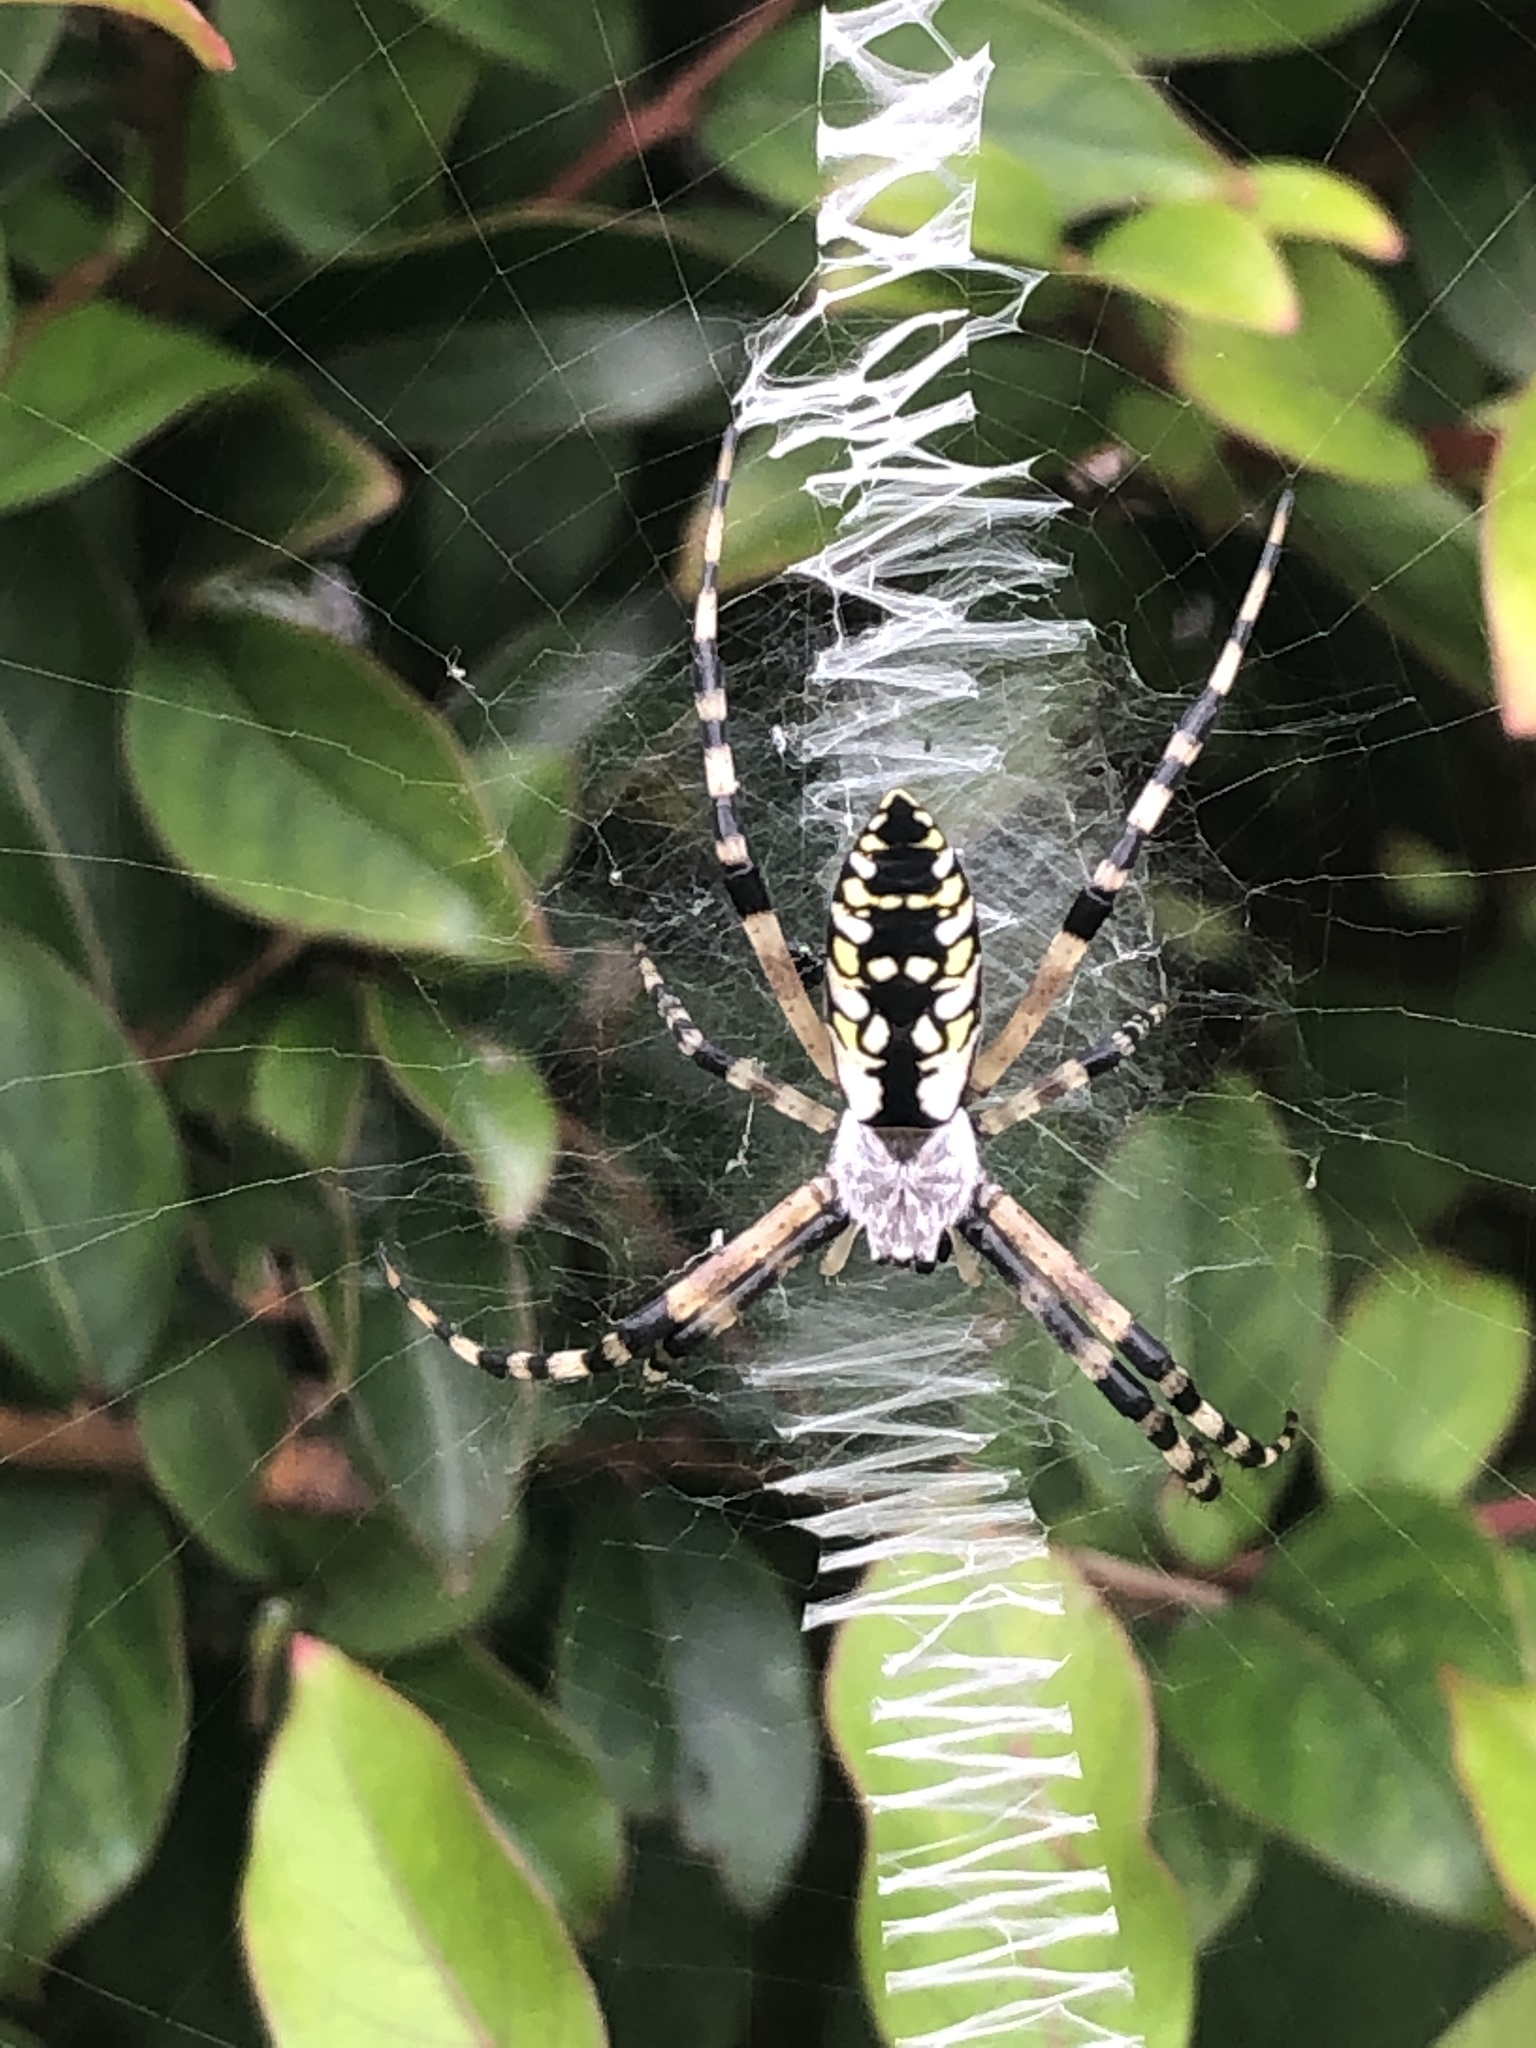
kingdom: Animalia
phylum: Arthropoda
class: Arachnida
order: Araneae
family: Araneidae
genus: Argiope
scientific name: Argiope aurantia
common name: Orb weavers
